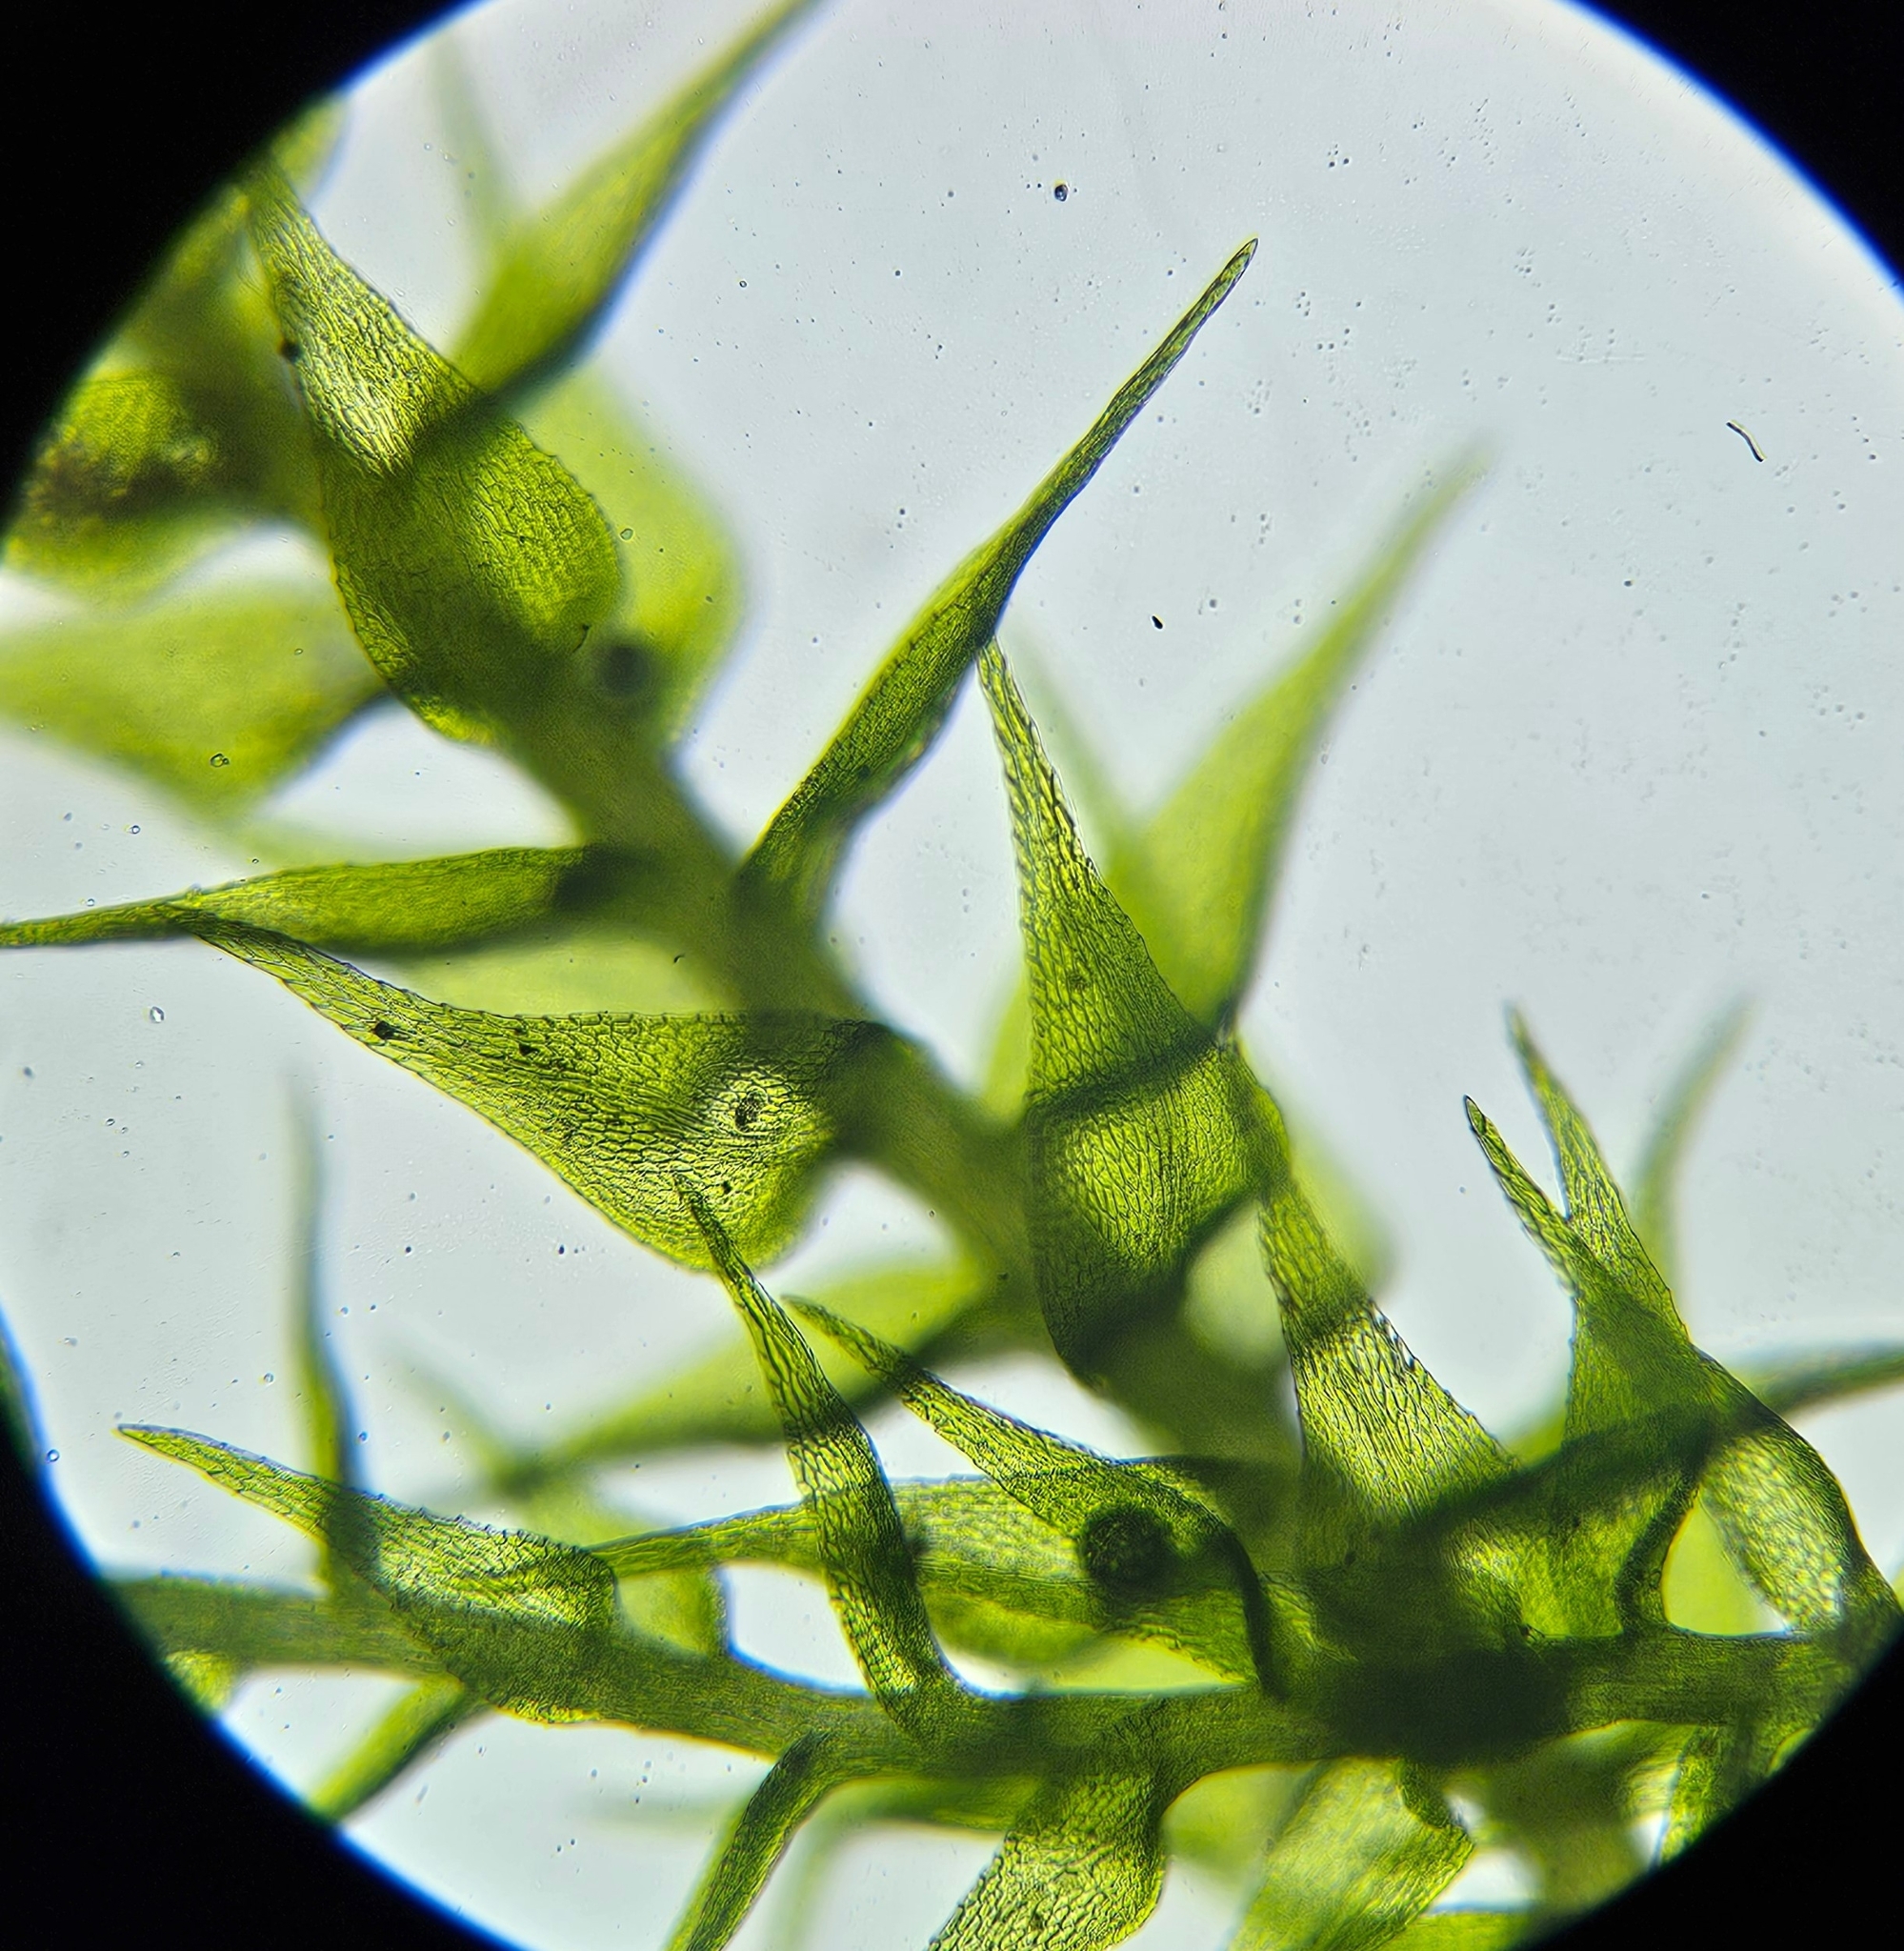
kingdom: Plantae
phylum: Bryophyta
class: Bryopsida
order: Hypnales
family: Amblystegiaceae
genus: Amblystegium
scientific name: Amblystegium serpens
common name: Jurkatzka's feather moss
